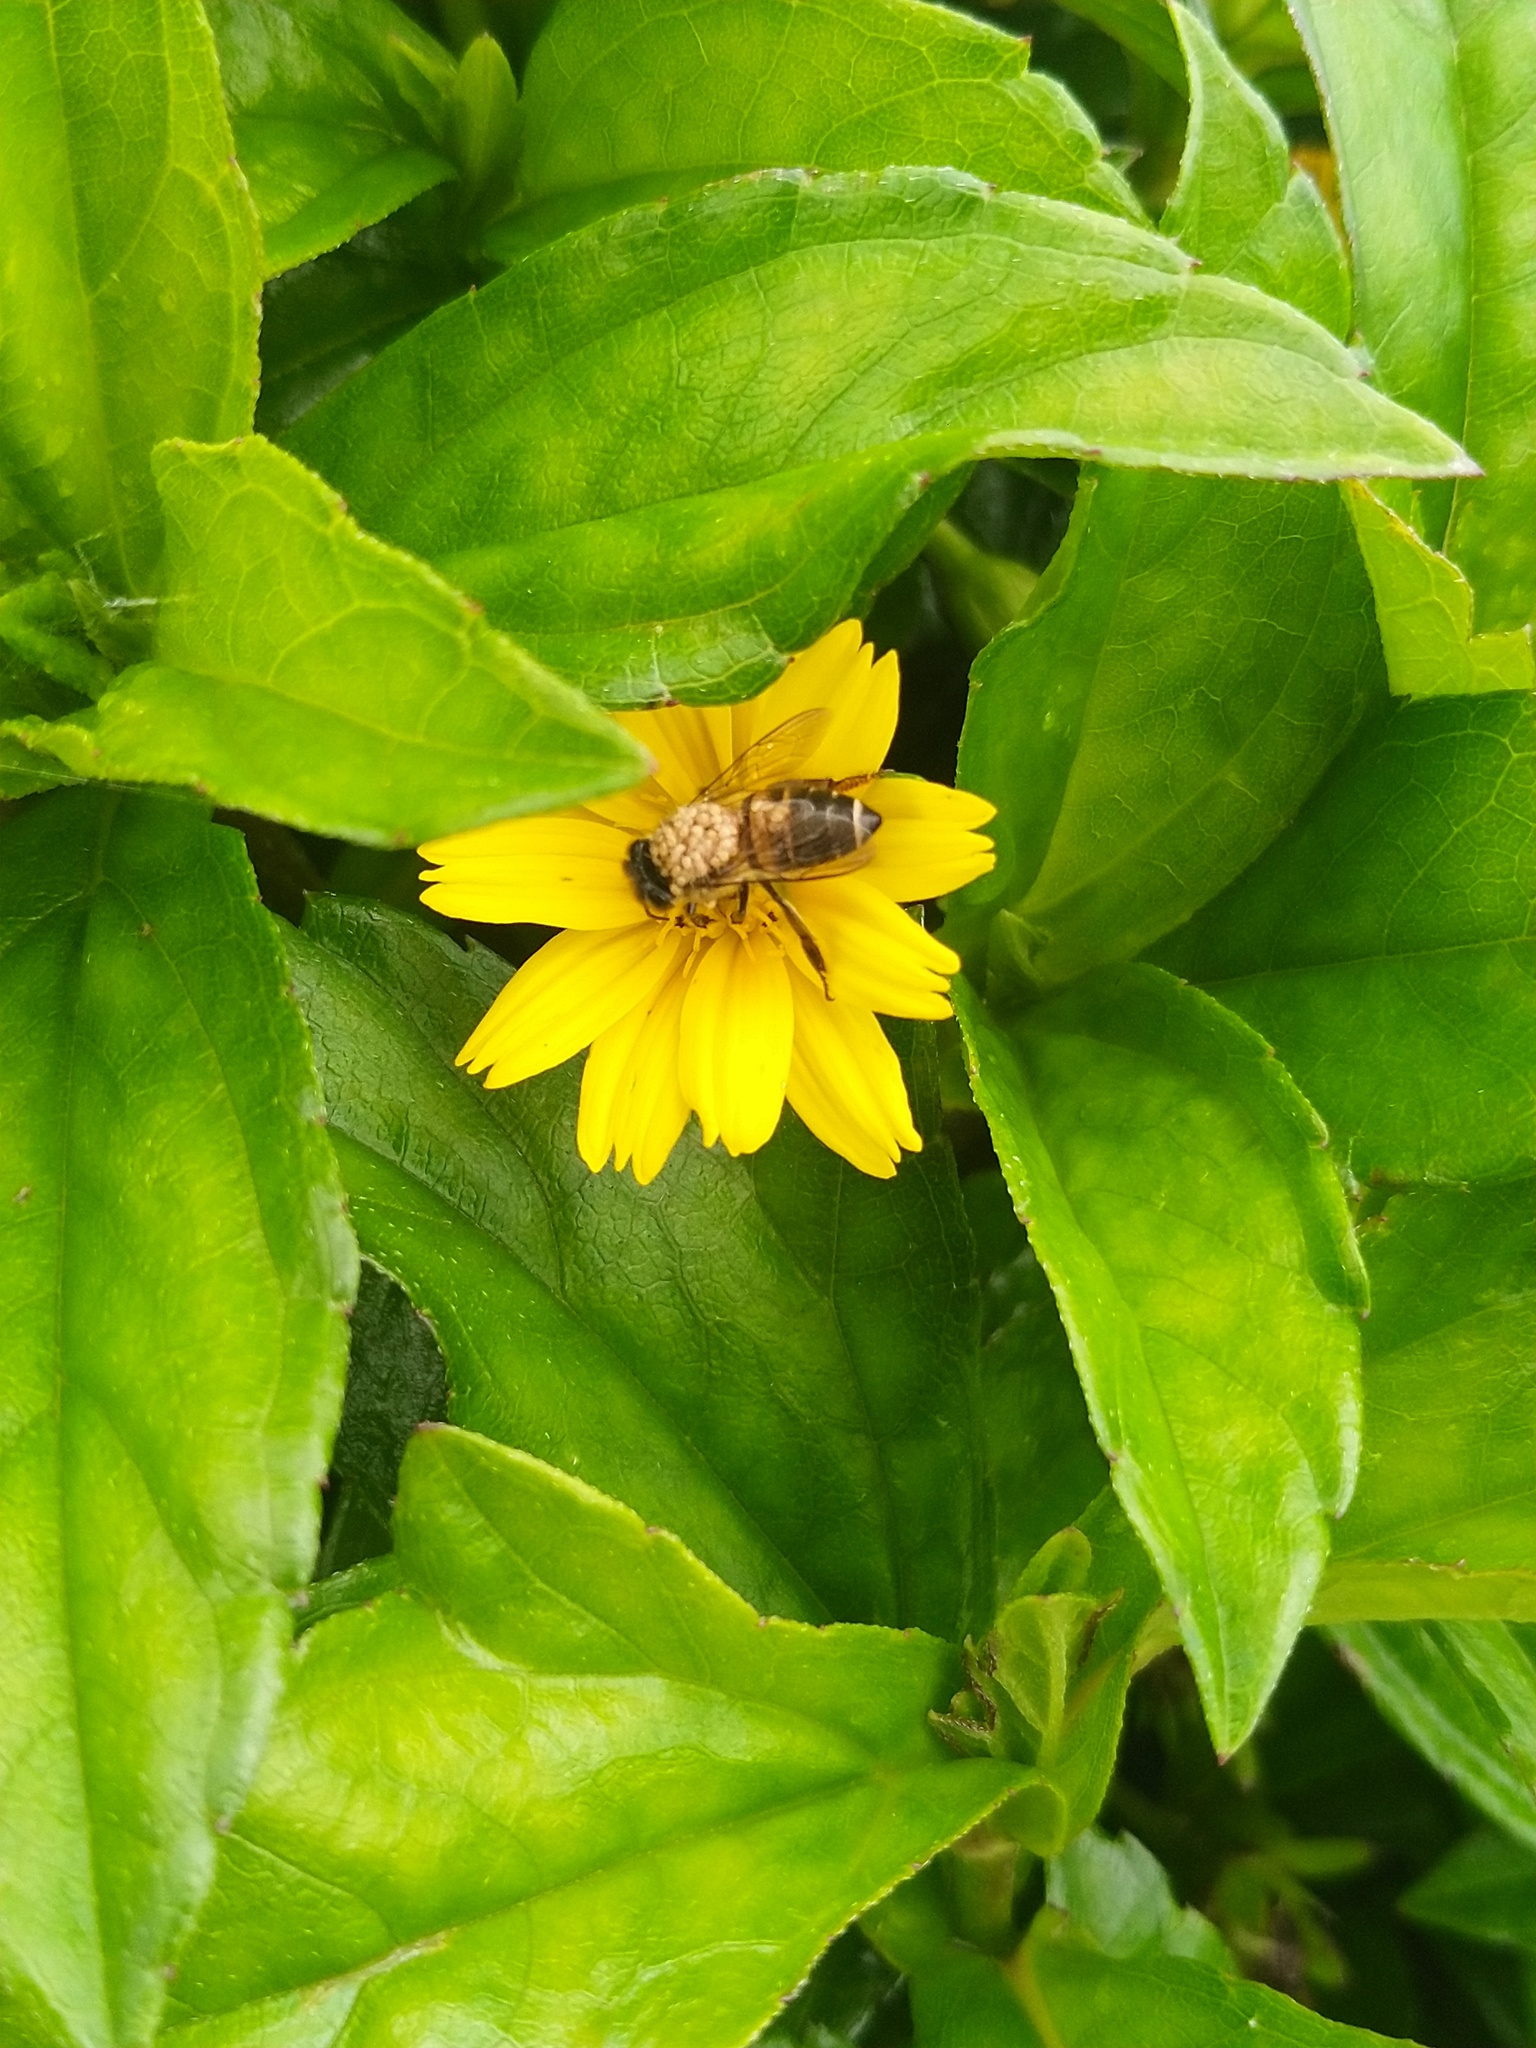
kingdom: Animalia
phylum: Arthropoda
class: Insecta
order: Hymenoptera
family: Apidae
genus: Apis
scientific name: Apis cerana
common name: Honey bee
